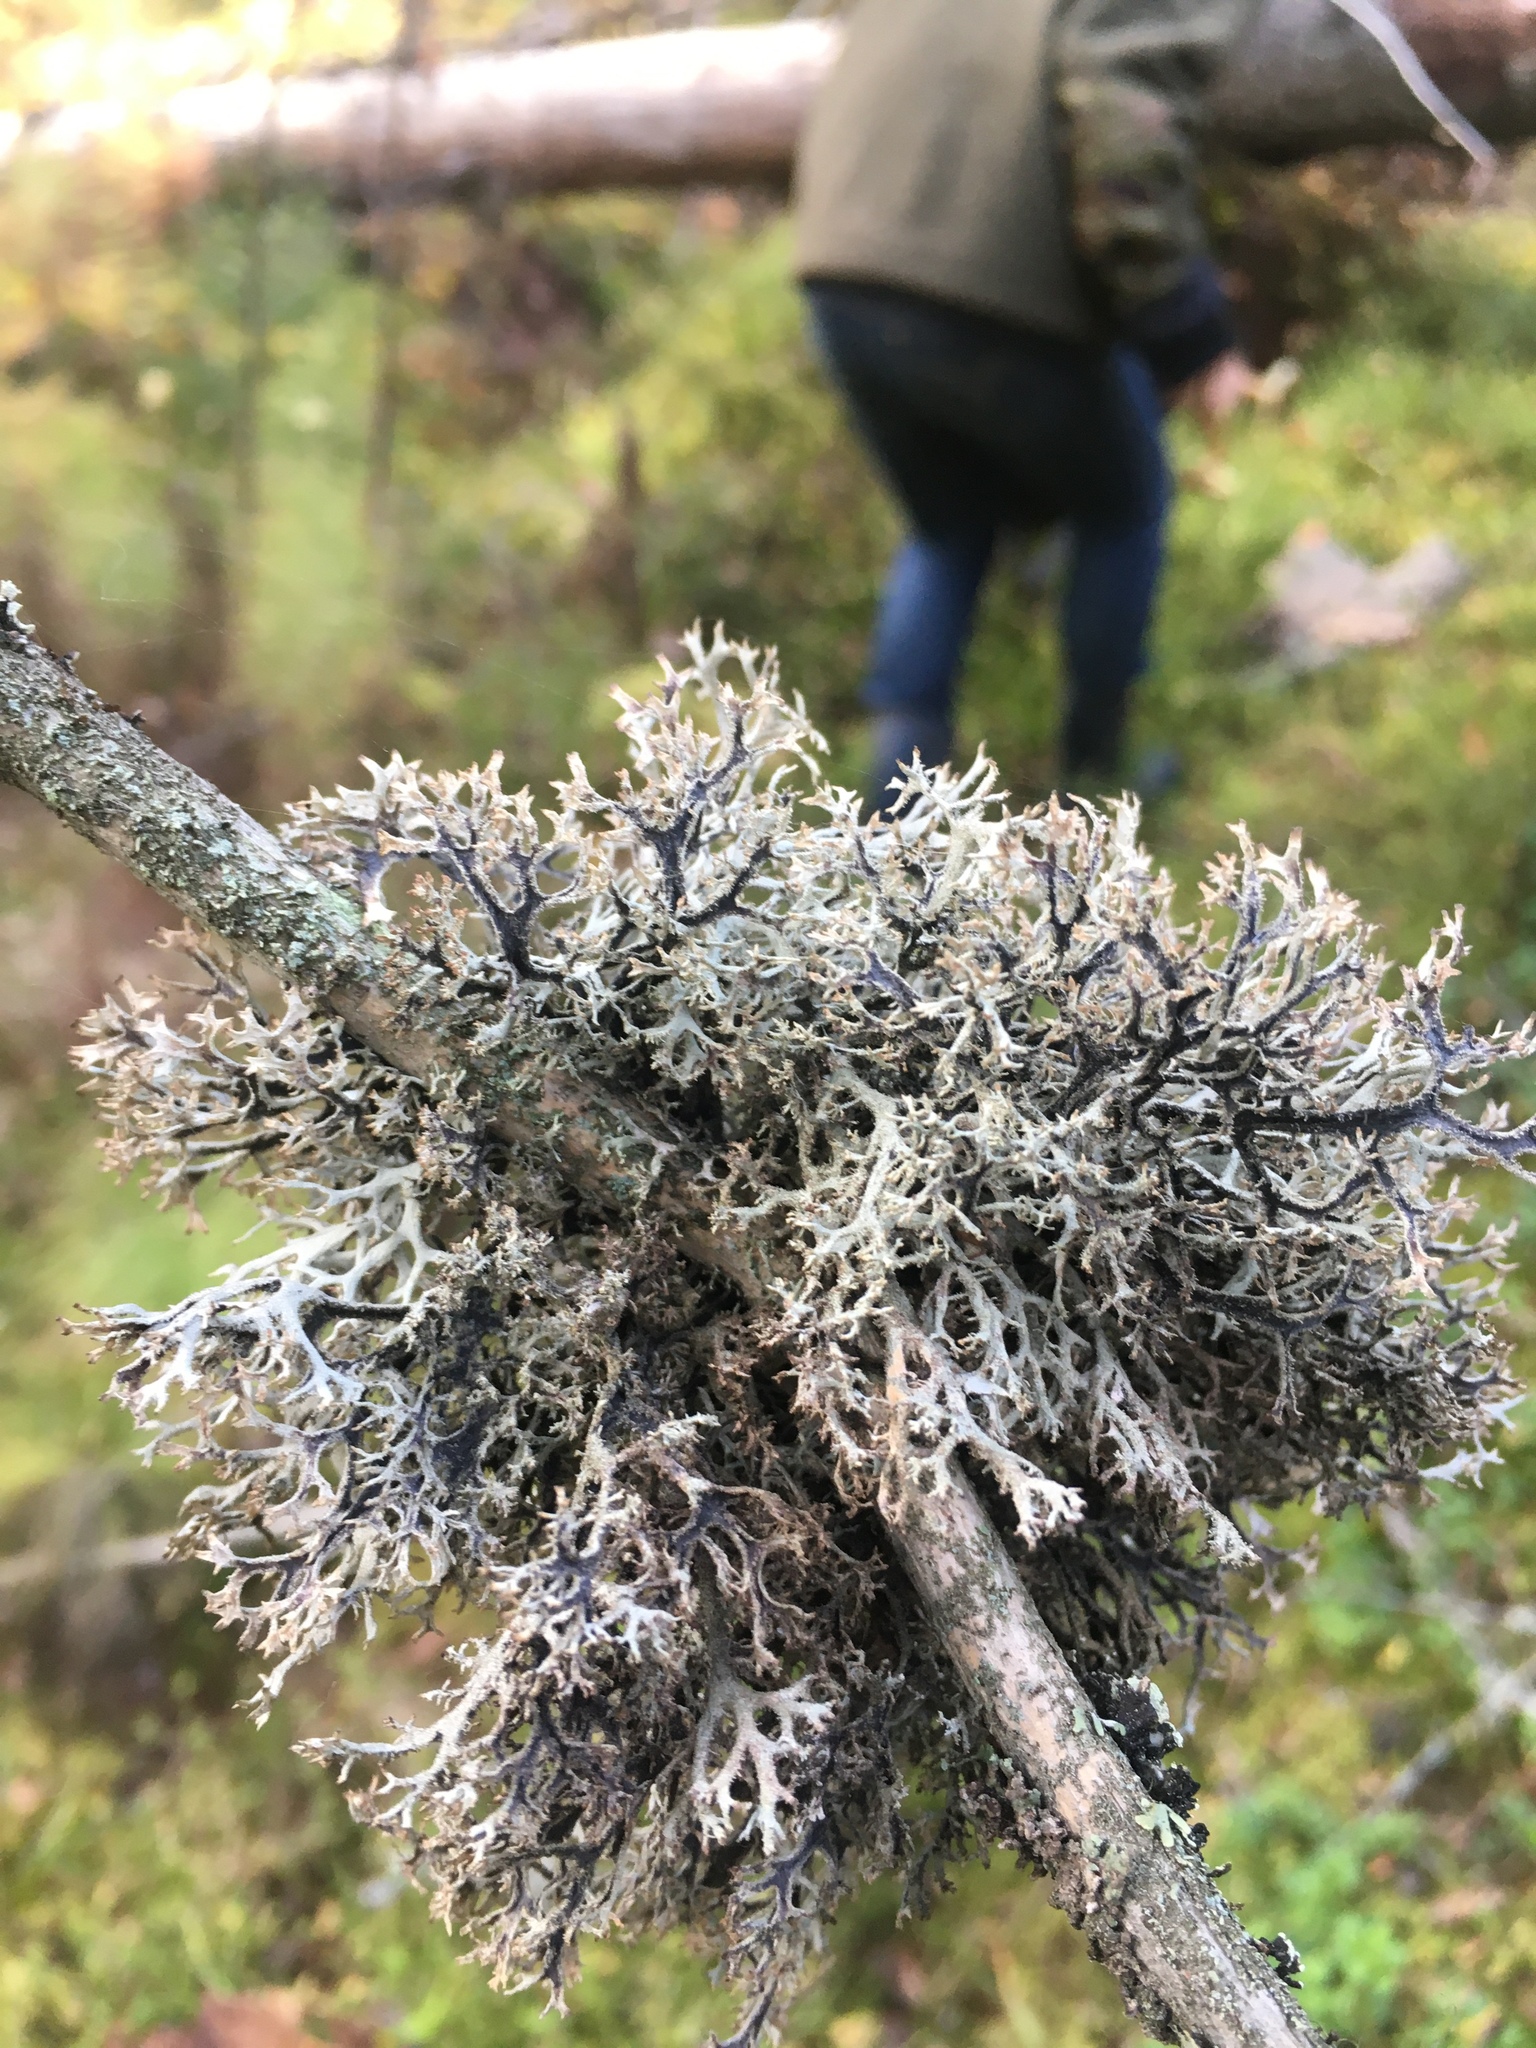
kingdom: Fungi
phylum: Ascomycota
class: Lecanoromycetes
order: Lecanorales
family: Parmeliaceae
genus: Pseudevernia
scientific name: Pseudevernia furfuracea
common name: Tree moss
